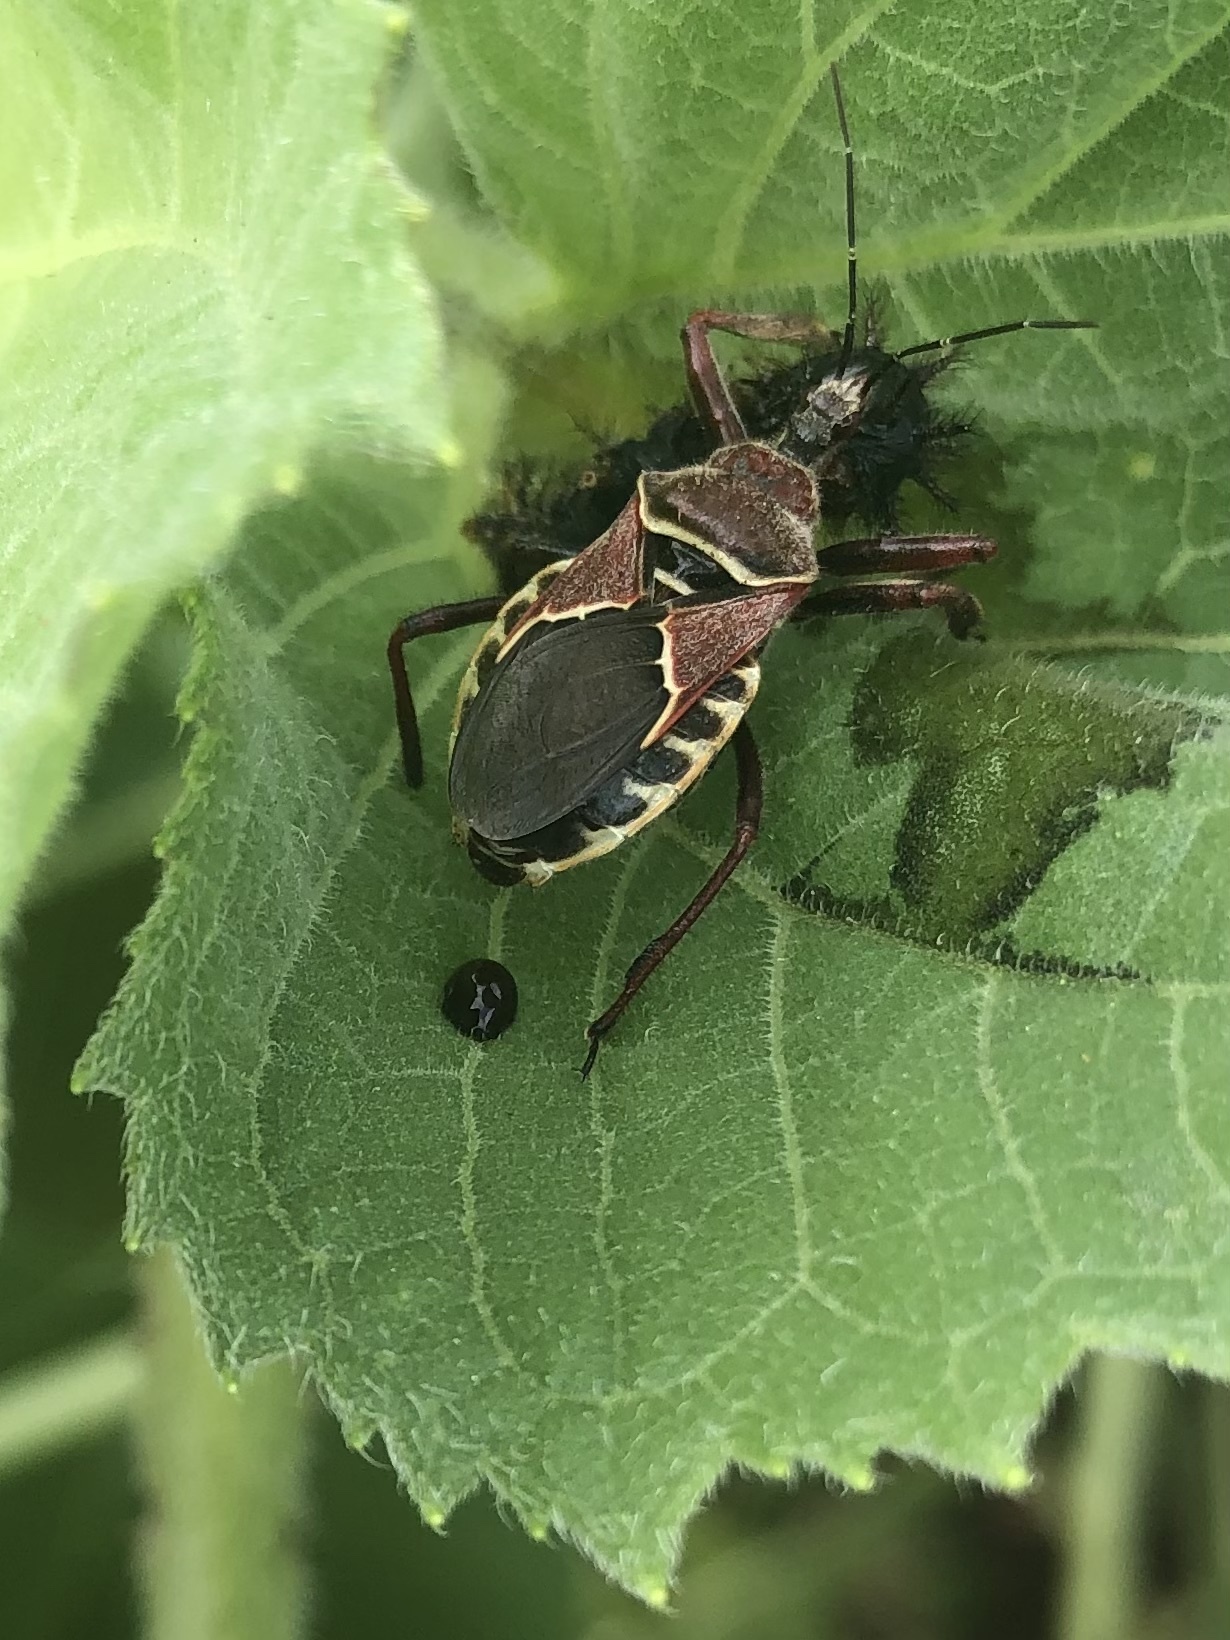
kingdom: Animalia
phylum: Arthropoda
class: Insecta
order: Hemiptera
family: Reduviidae
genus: Apiomerus
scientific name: Apiomerus spissipes
